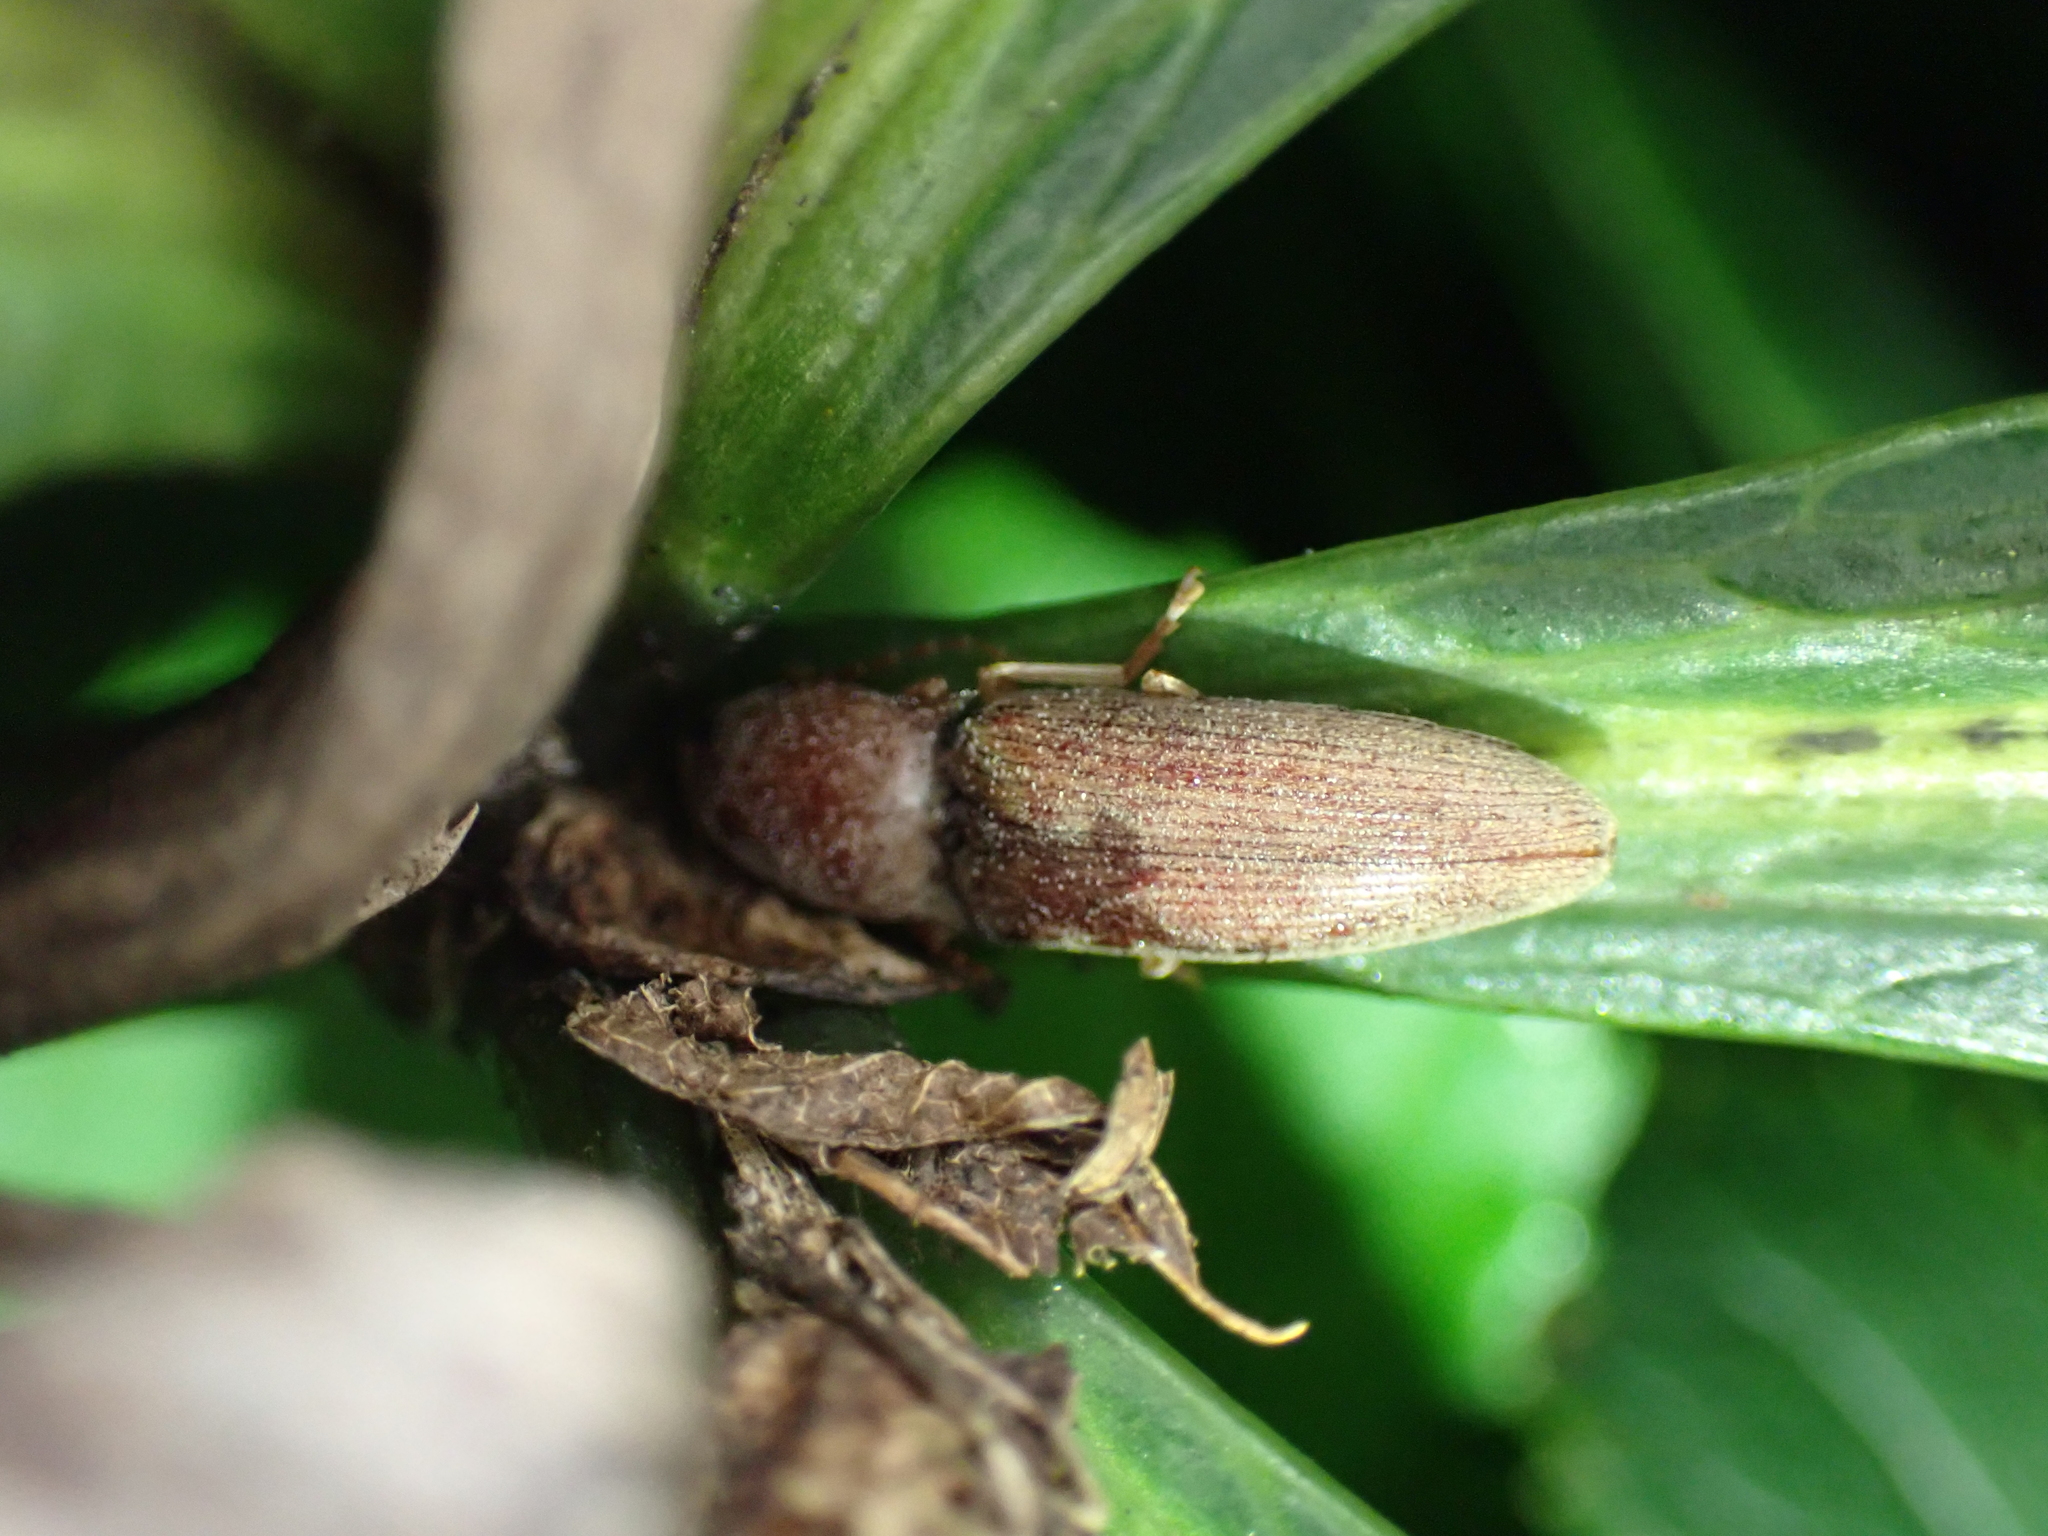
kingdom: Animalia
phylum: Arthropoda
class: Insecta
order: Coleoptera
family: Elateridae
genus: Monocrepidius
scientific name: Monocrepidius lividus
